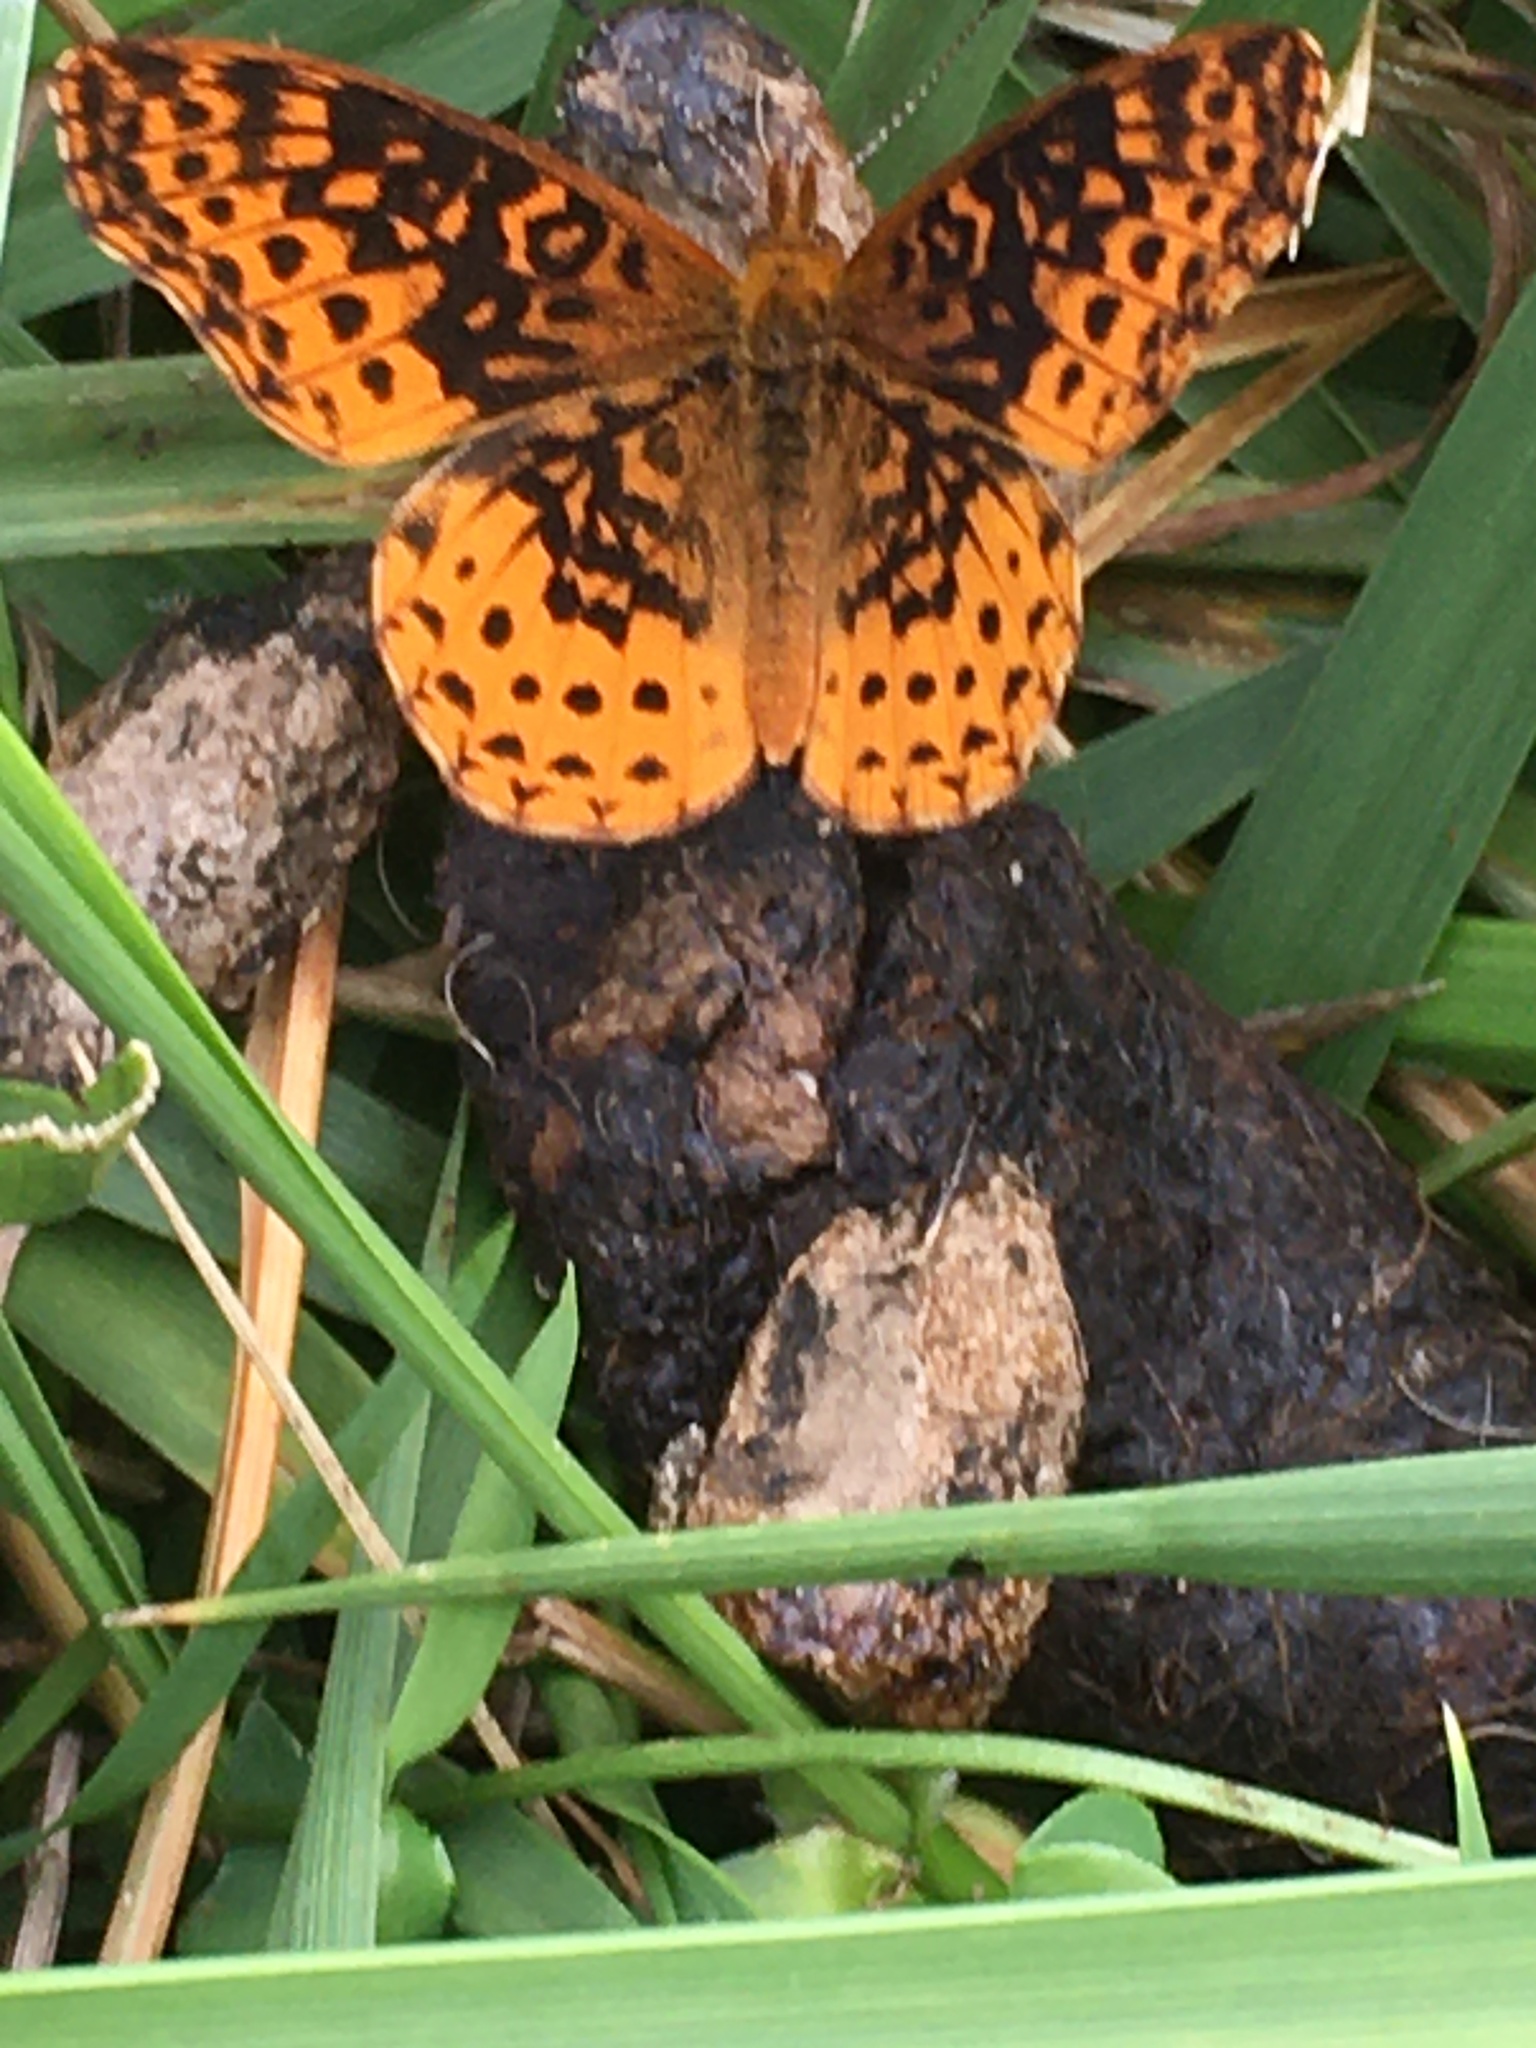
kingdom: Animalia
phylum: Arthropoda
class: Insecta
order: Lepidoptera
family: Nymphalidae
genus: Clossiana
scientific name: Clossiana toddi
